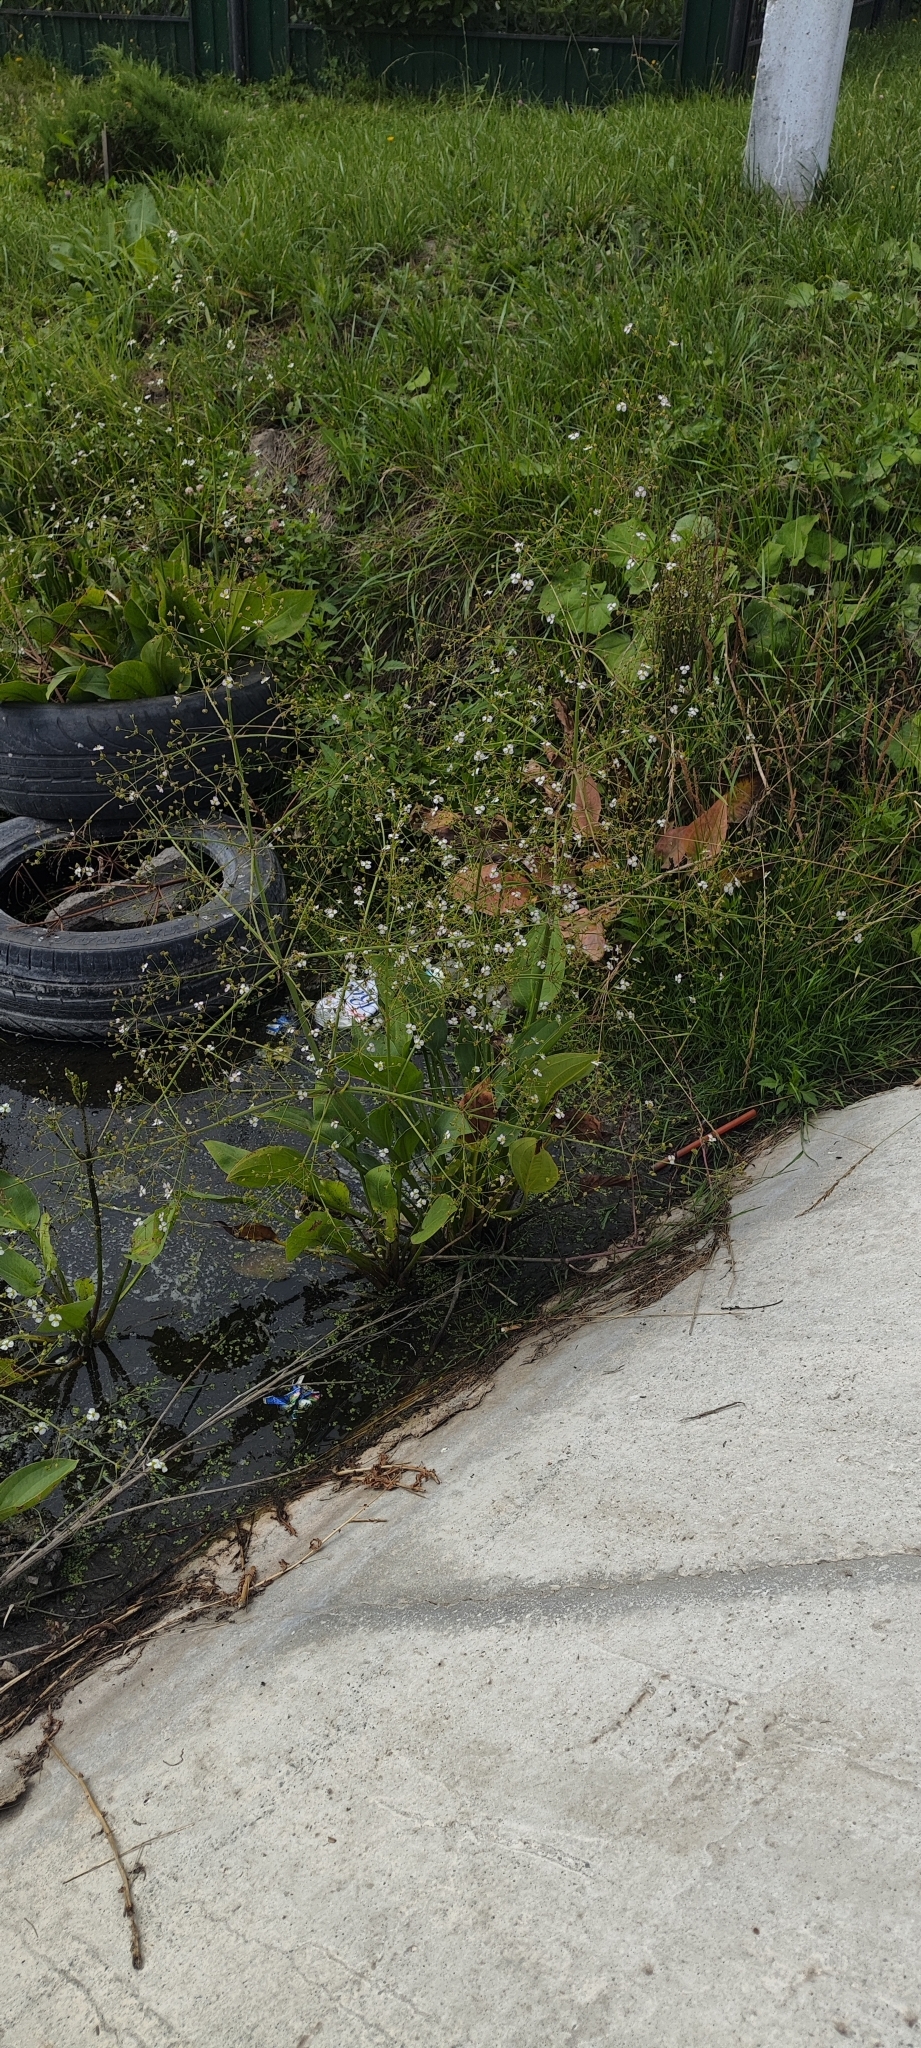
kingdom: Plantae
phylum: Tracheophyta
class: Liliopsida
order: Alismatales
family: Alismataceae
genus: Alisma
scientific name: Alisma plantago-aquatica
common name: Water-plantain
